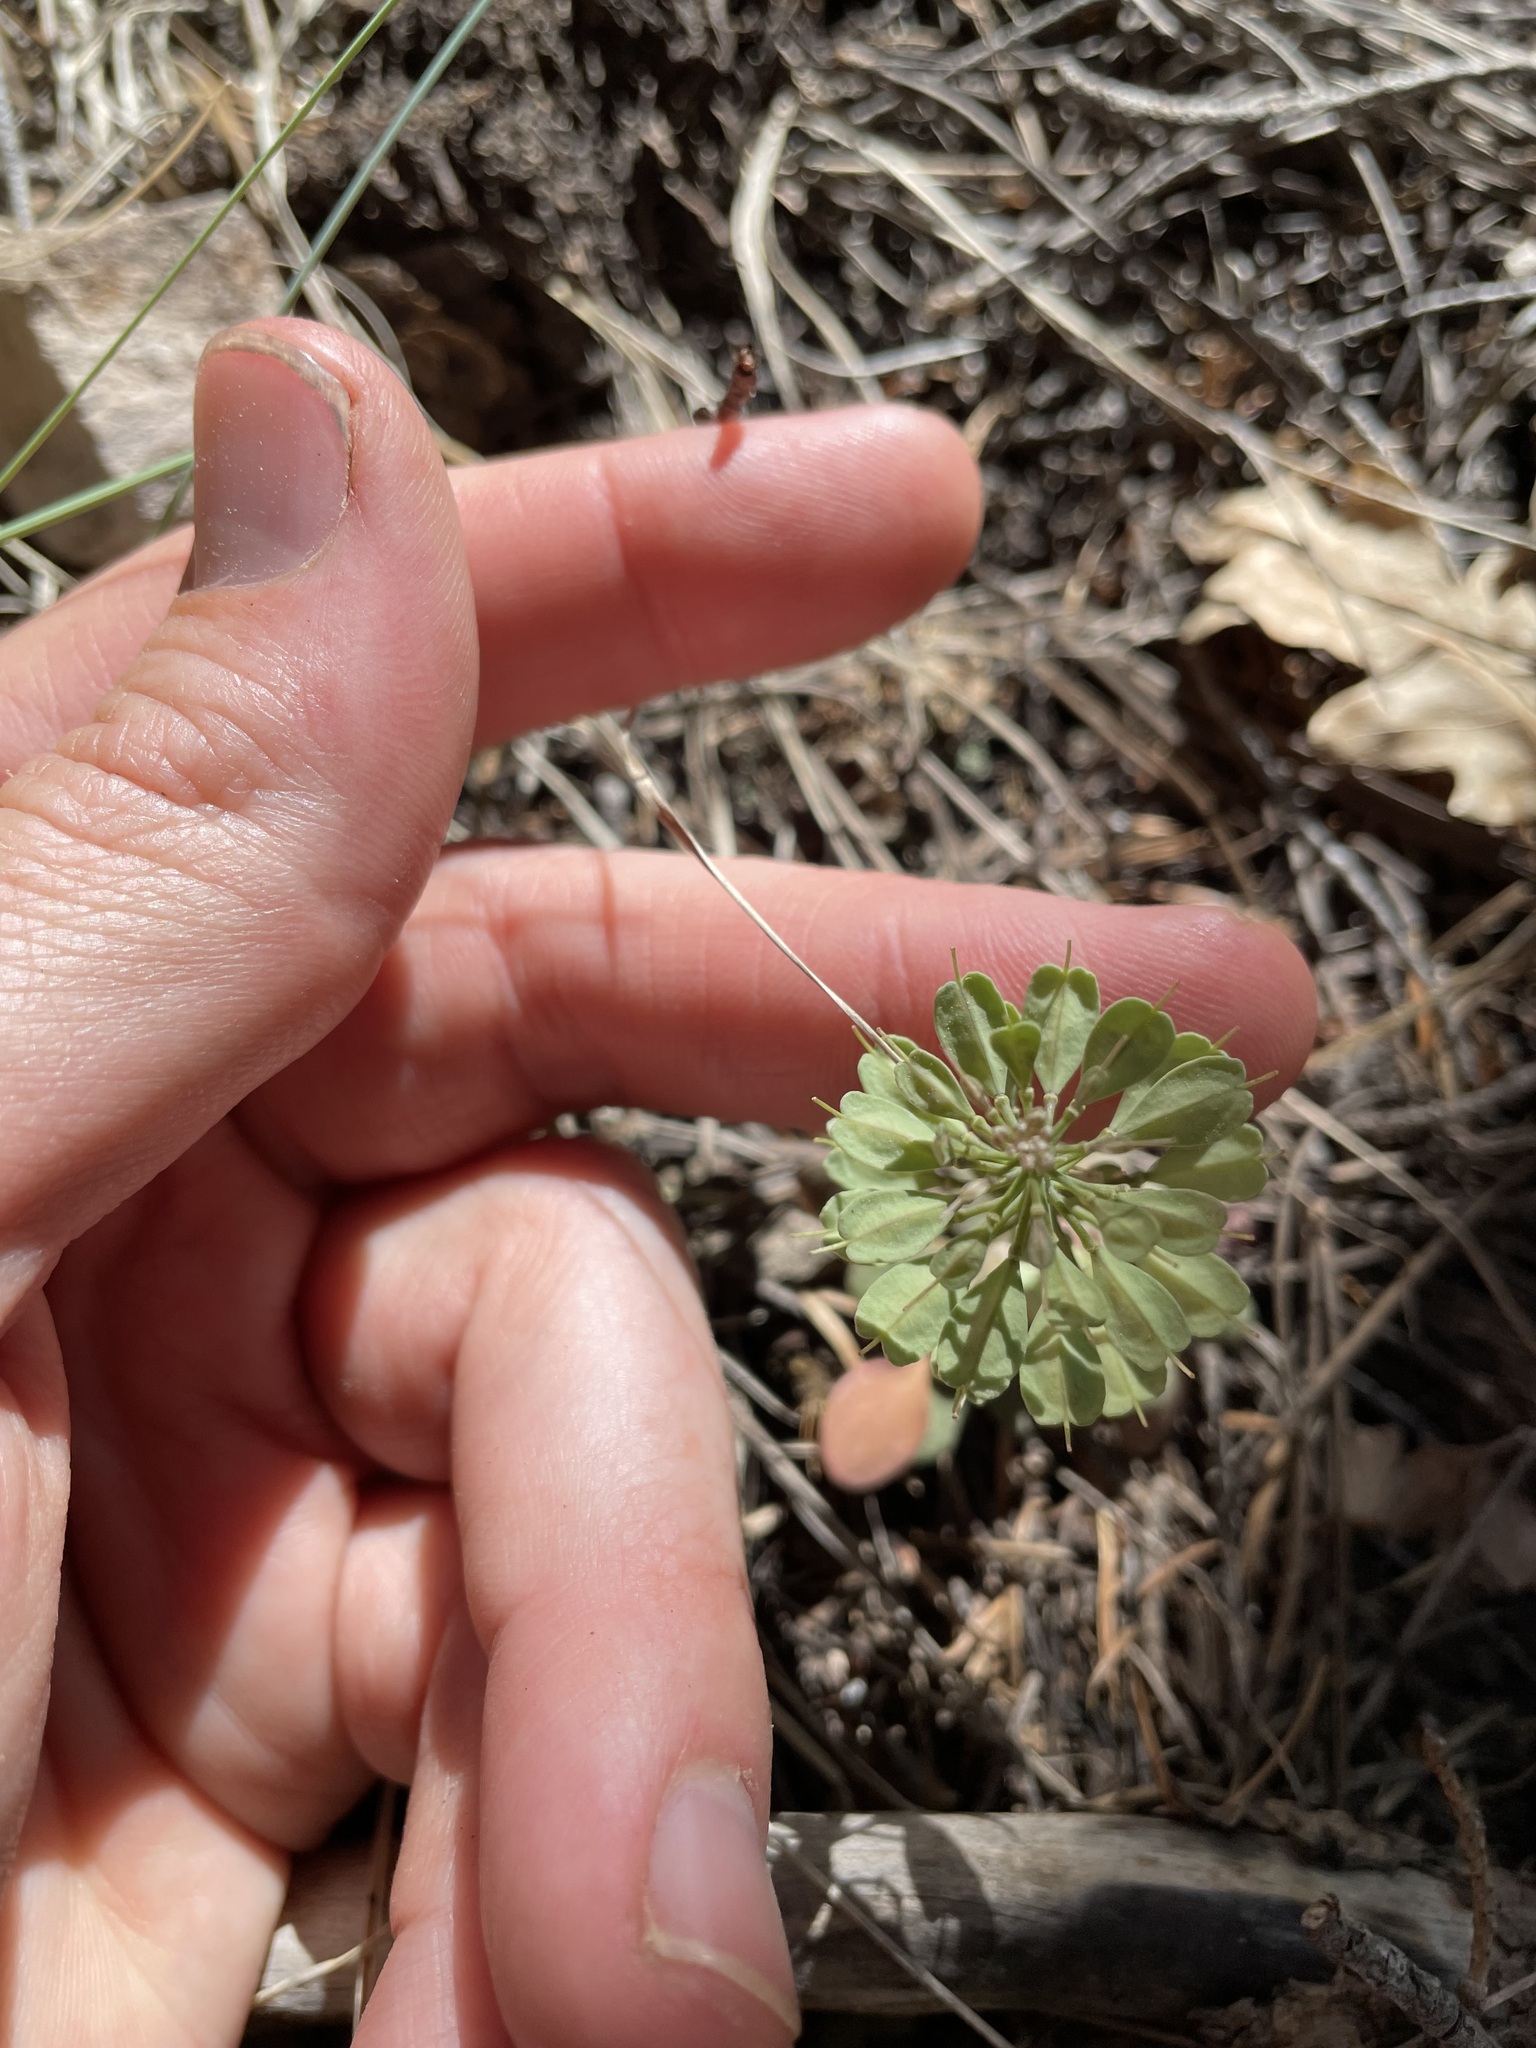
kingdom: Plantae
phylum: Tracheophyta
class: Magnoliopsida
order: Brassicales
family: Brassicaceae
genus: Noccaea
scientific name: Noccaea fendleri
